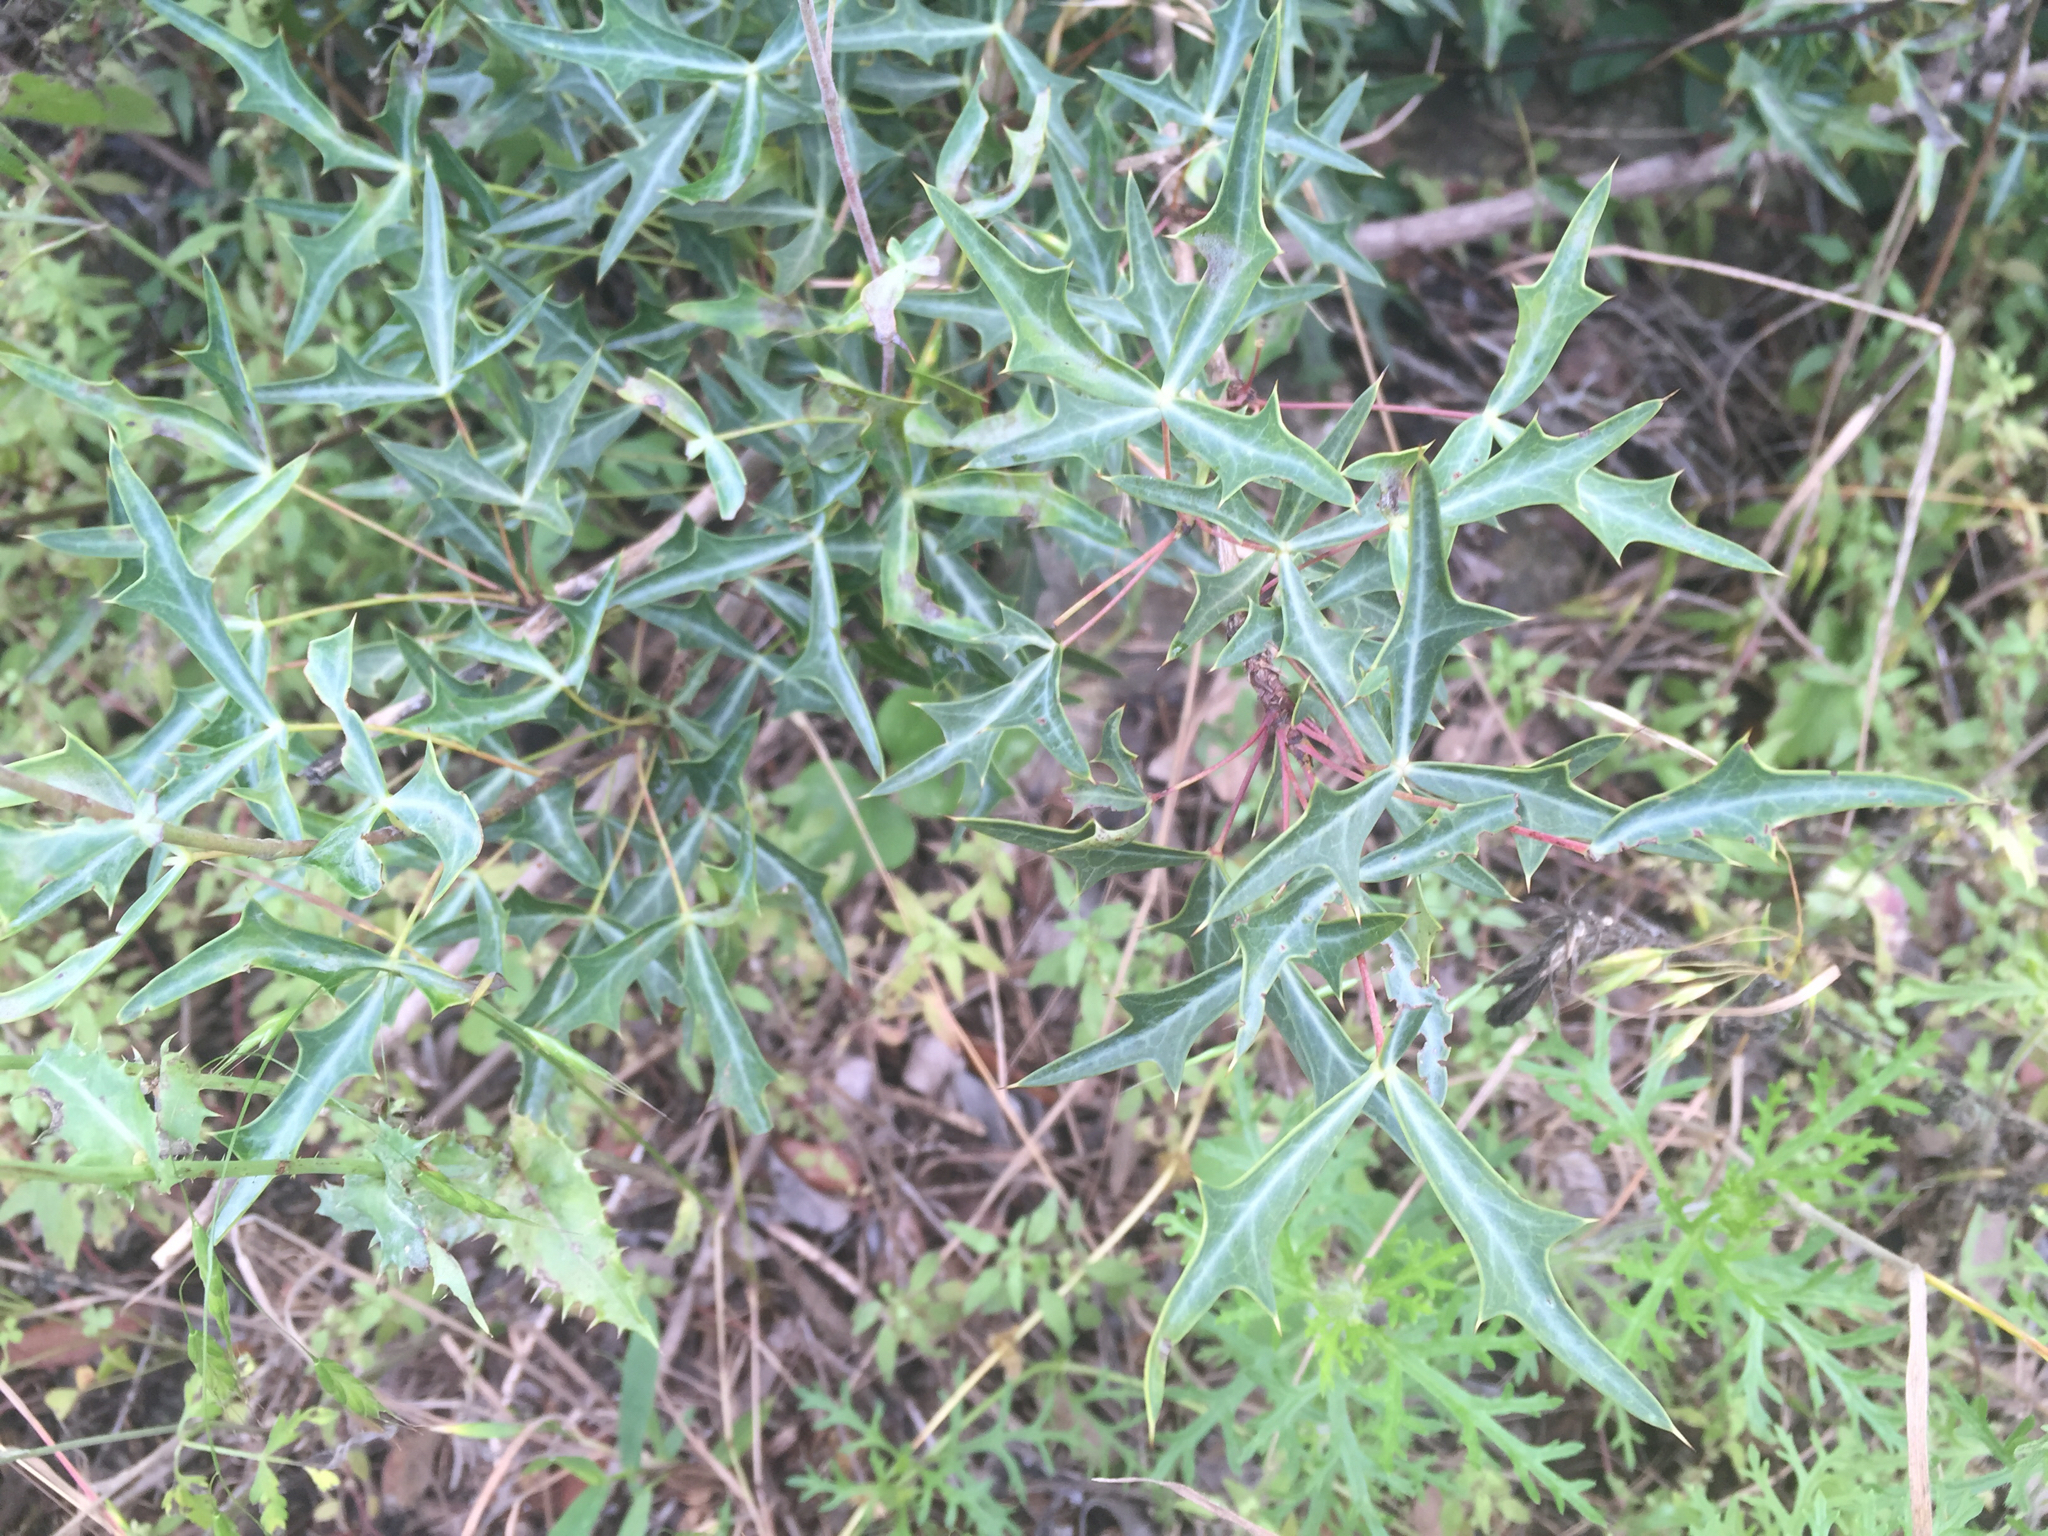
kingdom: Plantae
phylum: Tracheophyta
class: Magnoliopsida
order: Ranunculales
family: Berberidaceae
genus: Alloberberis
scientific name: Alloberberis trifoliolata
